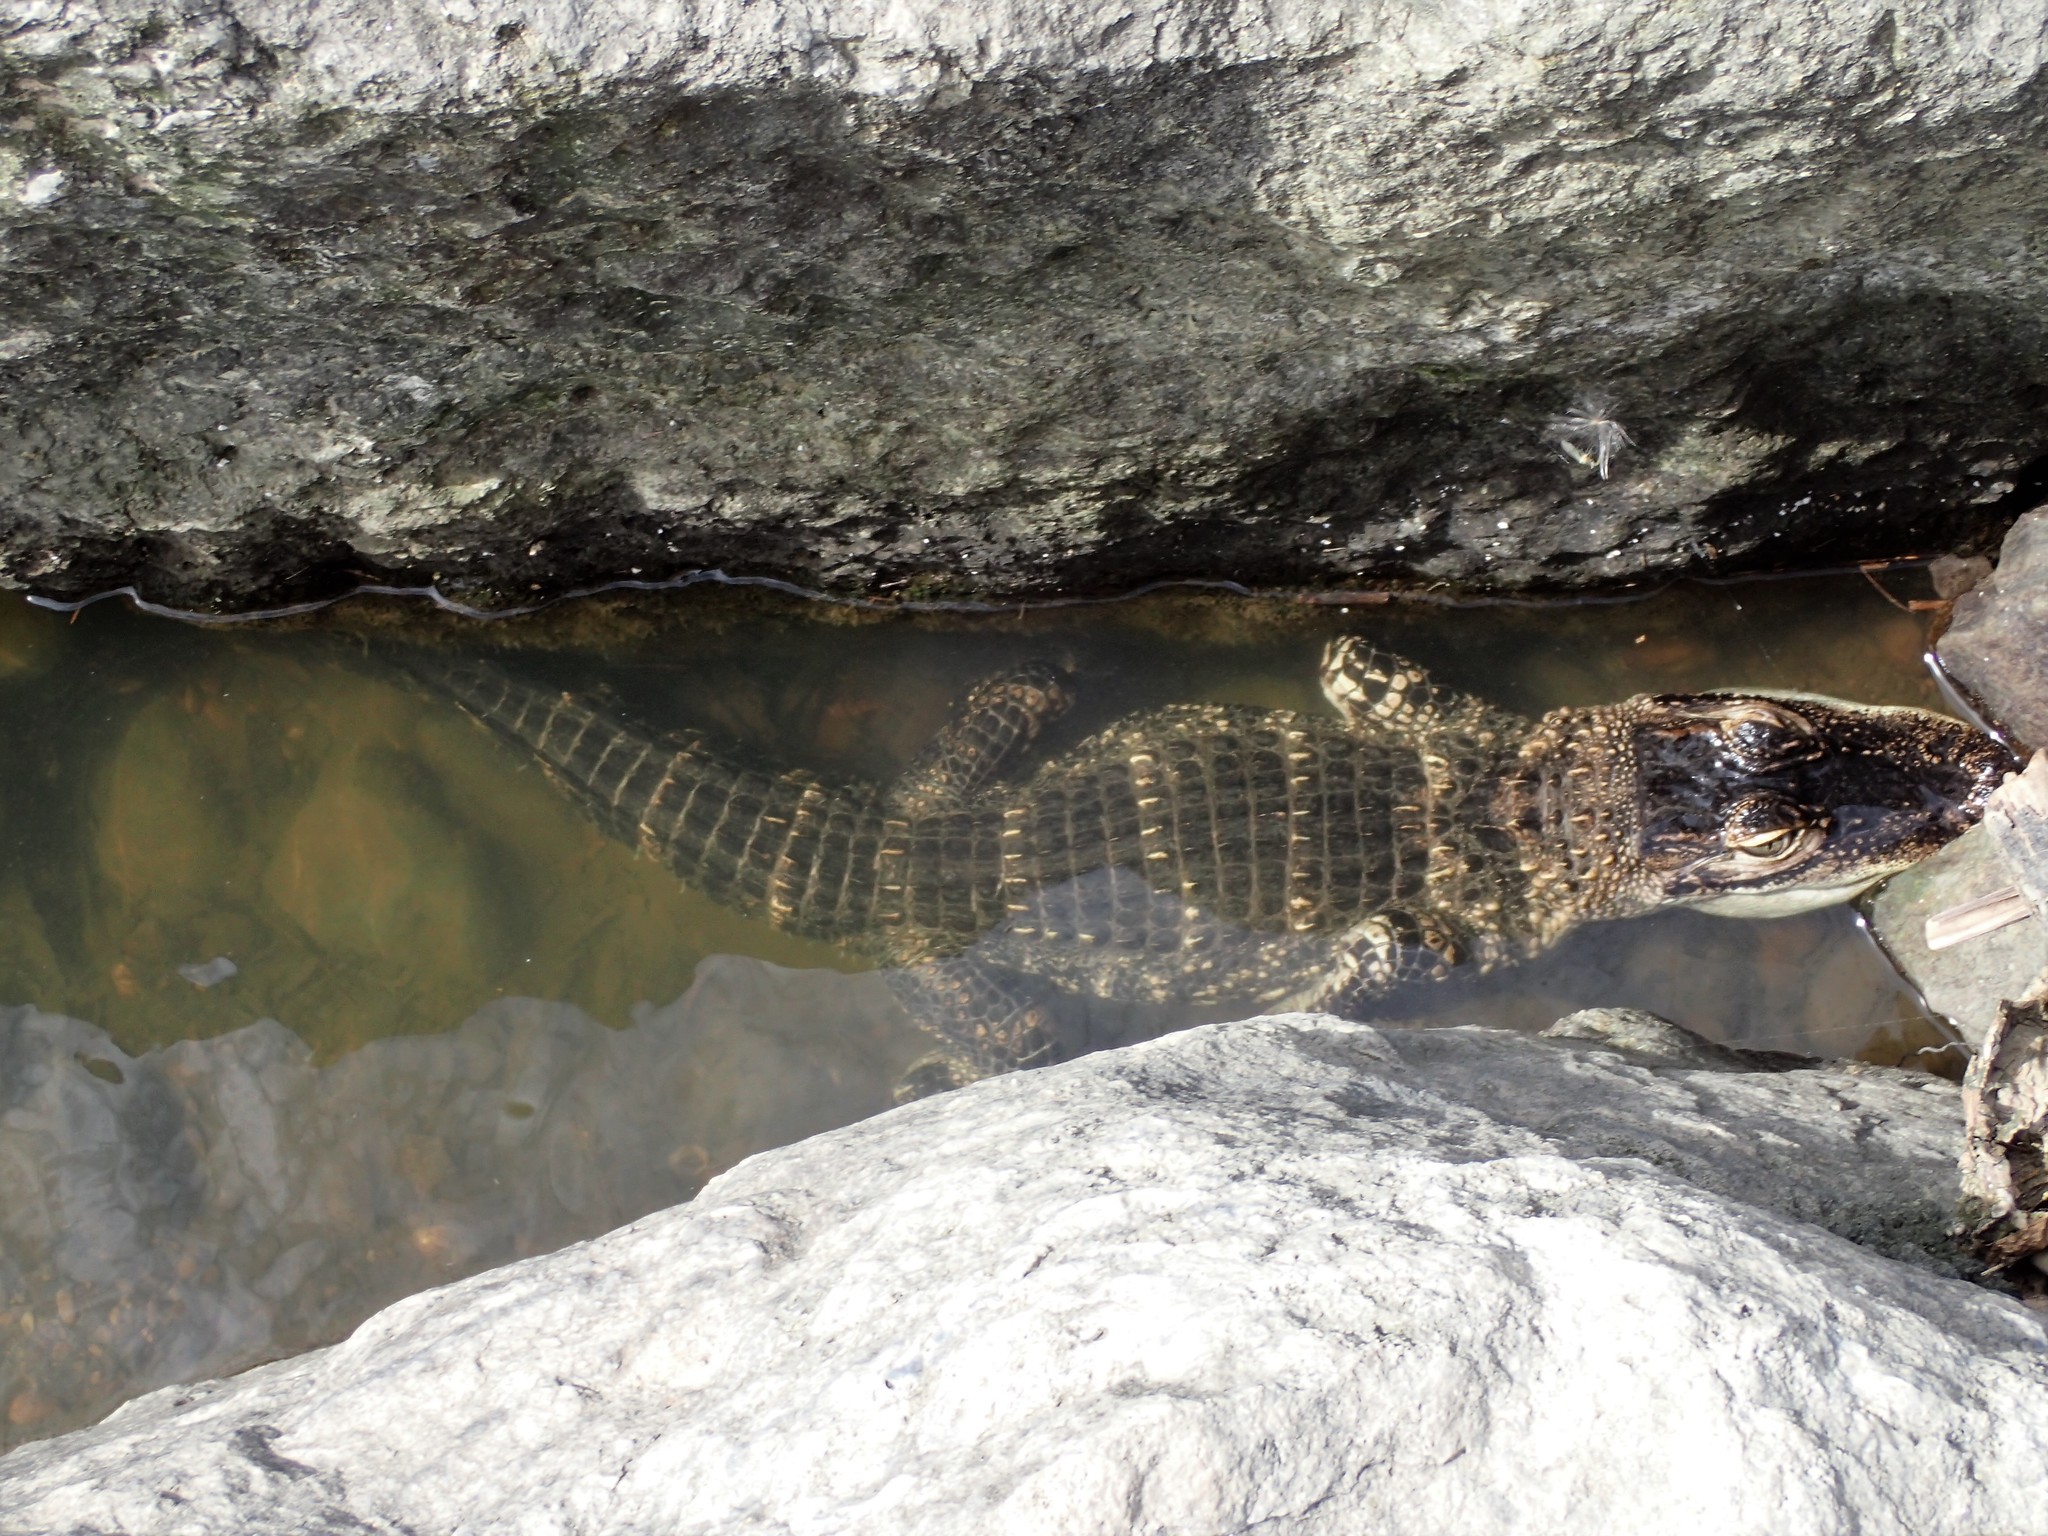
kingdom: Animalia
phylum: Chordata
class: Crocodylia
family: Alligatoridae
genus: Alligator
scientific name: Alligator mississippiensis
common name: American alligator
